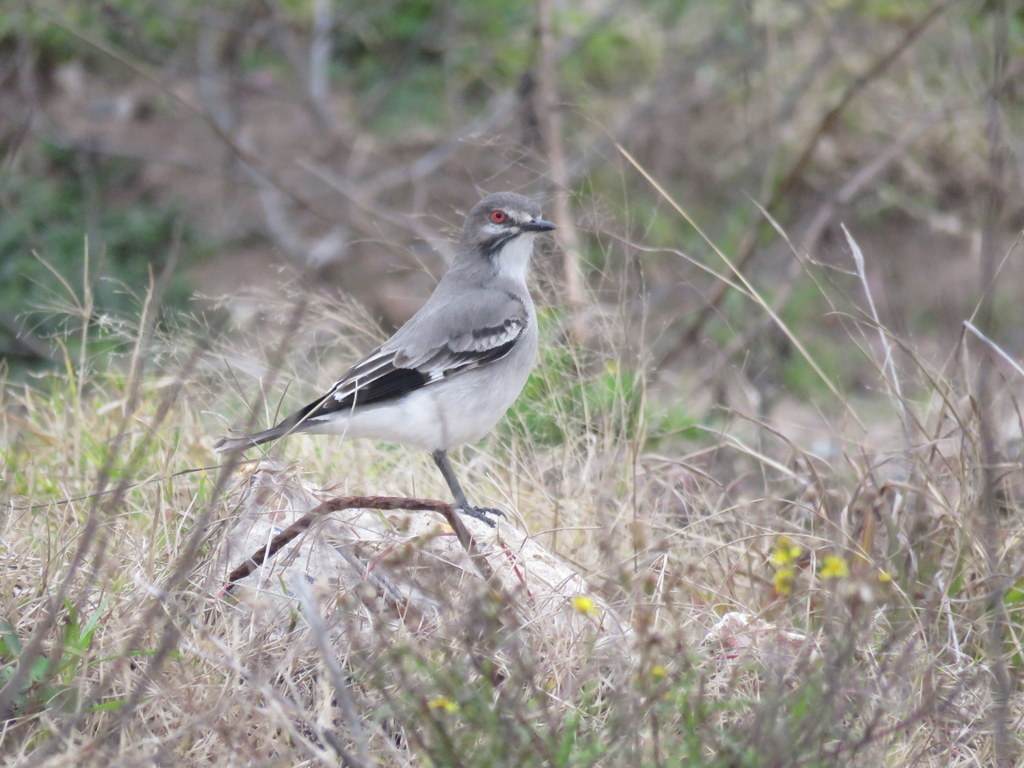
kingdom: Animalia
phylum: Chordata
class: Aves
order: Passeriformes
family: Tyrannidae
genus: Xolmis
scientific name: Xolmis cinereus
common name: Grey monjita
